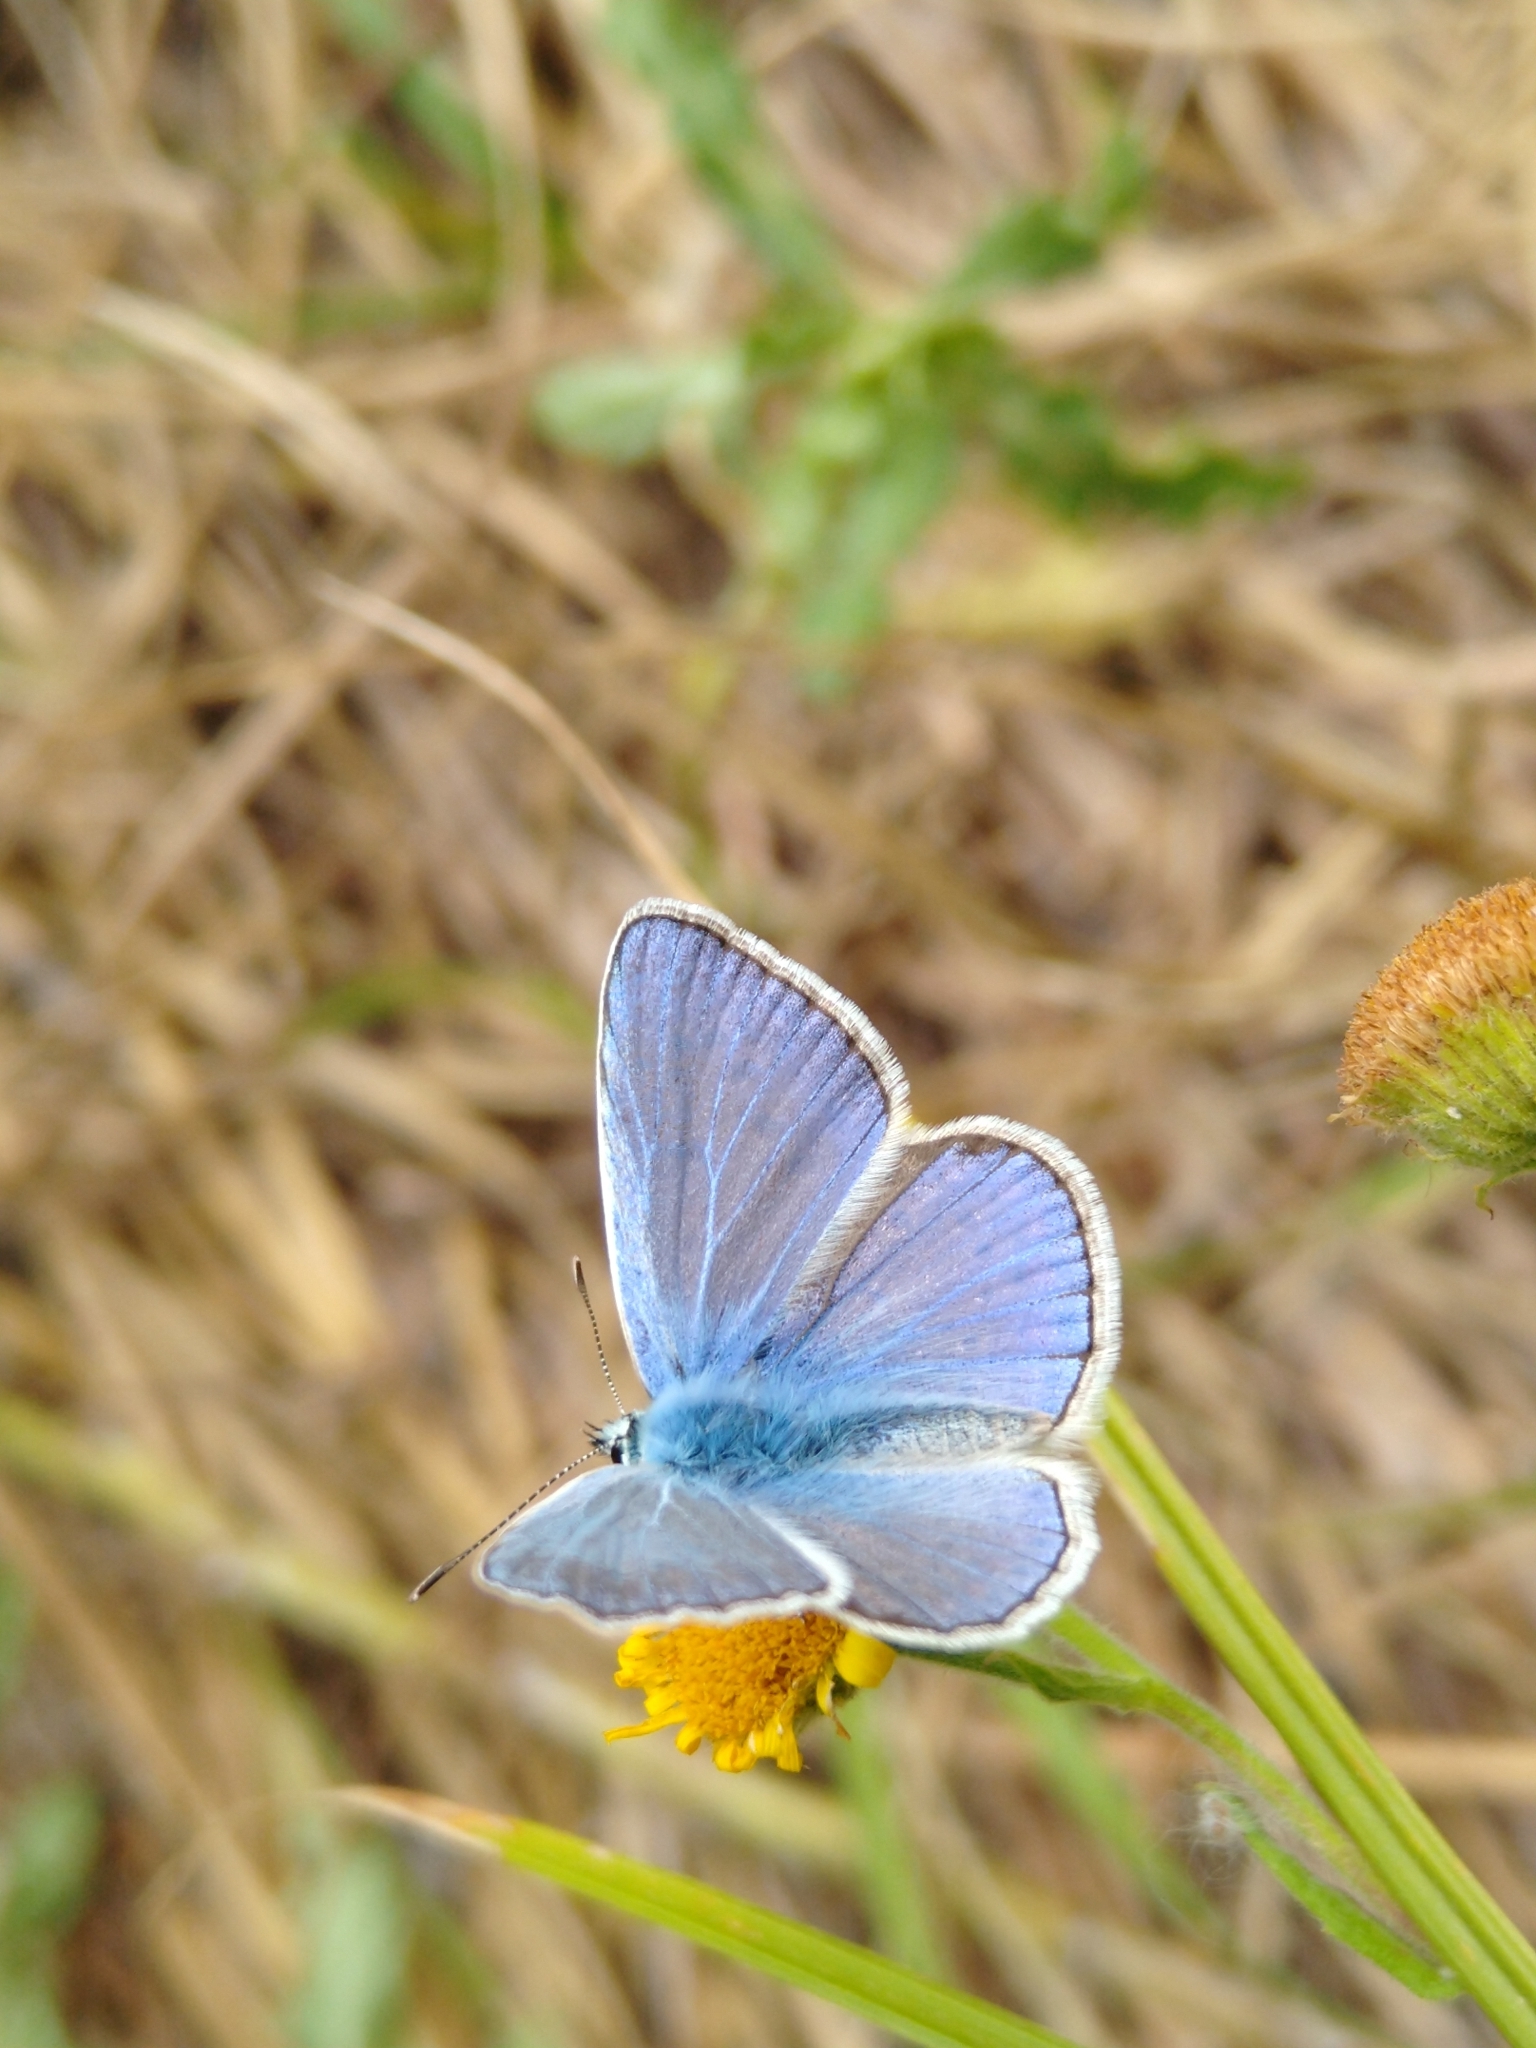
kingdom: Animalia
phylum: Arthropoda
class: Insecta
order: Lepidoptera
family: Lycaenidae
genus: Polyommatus
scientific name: Polyommatus icarus
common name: Common blue
